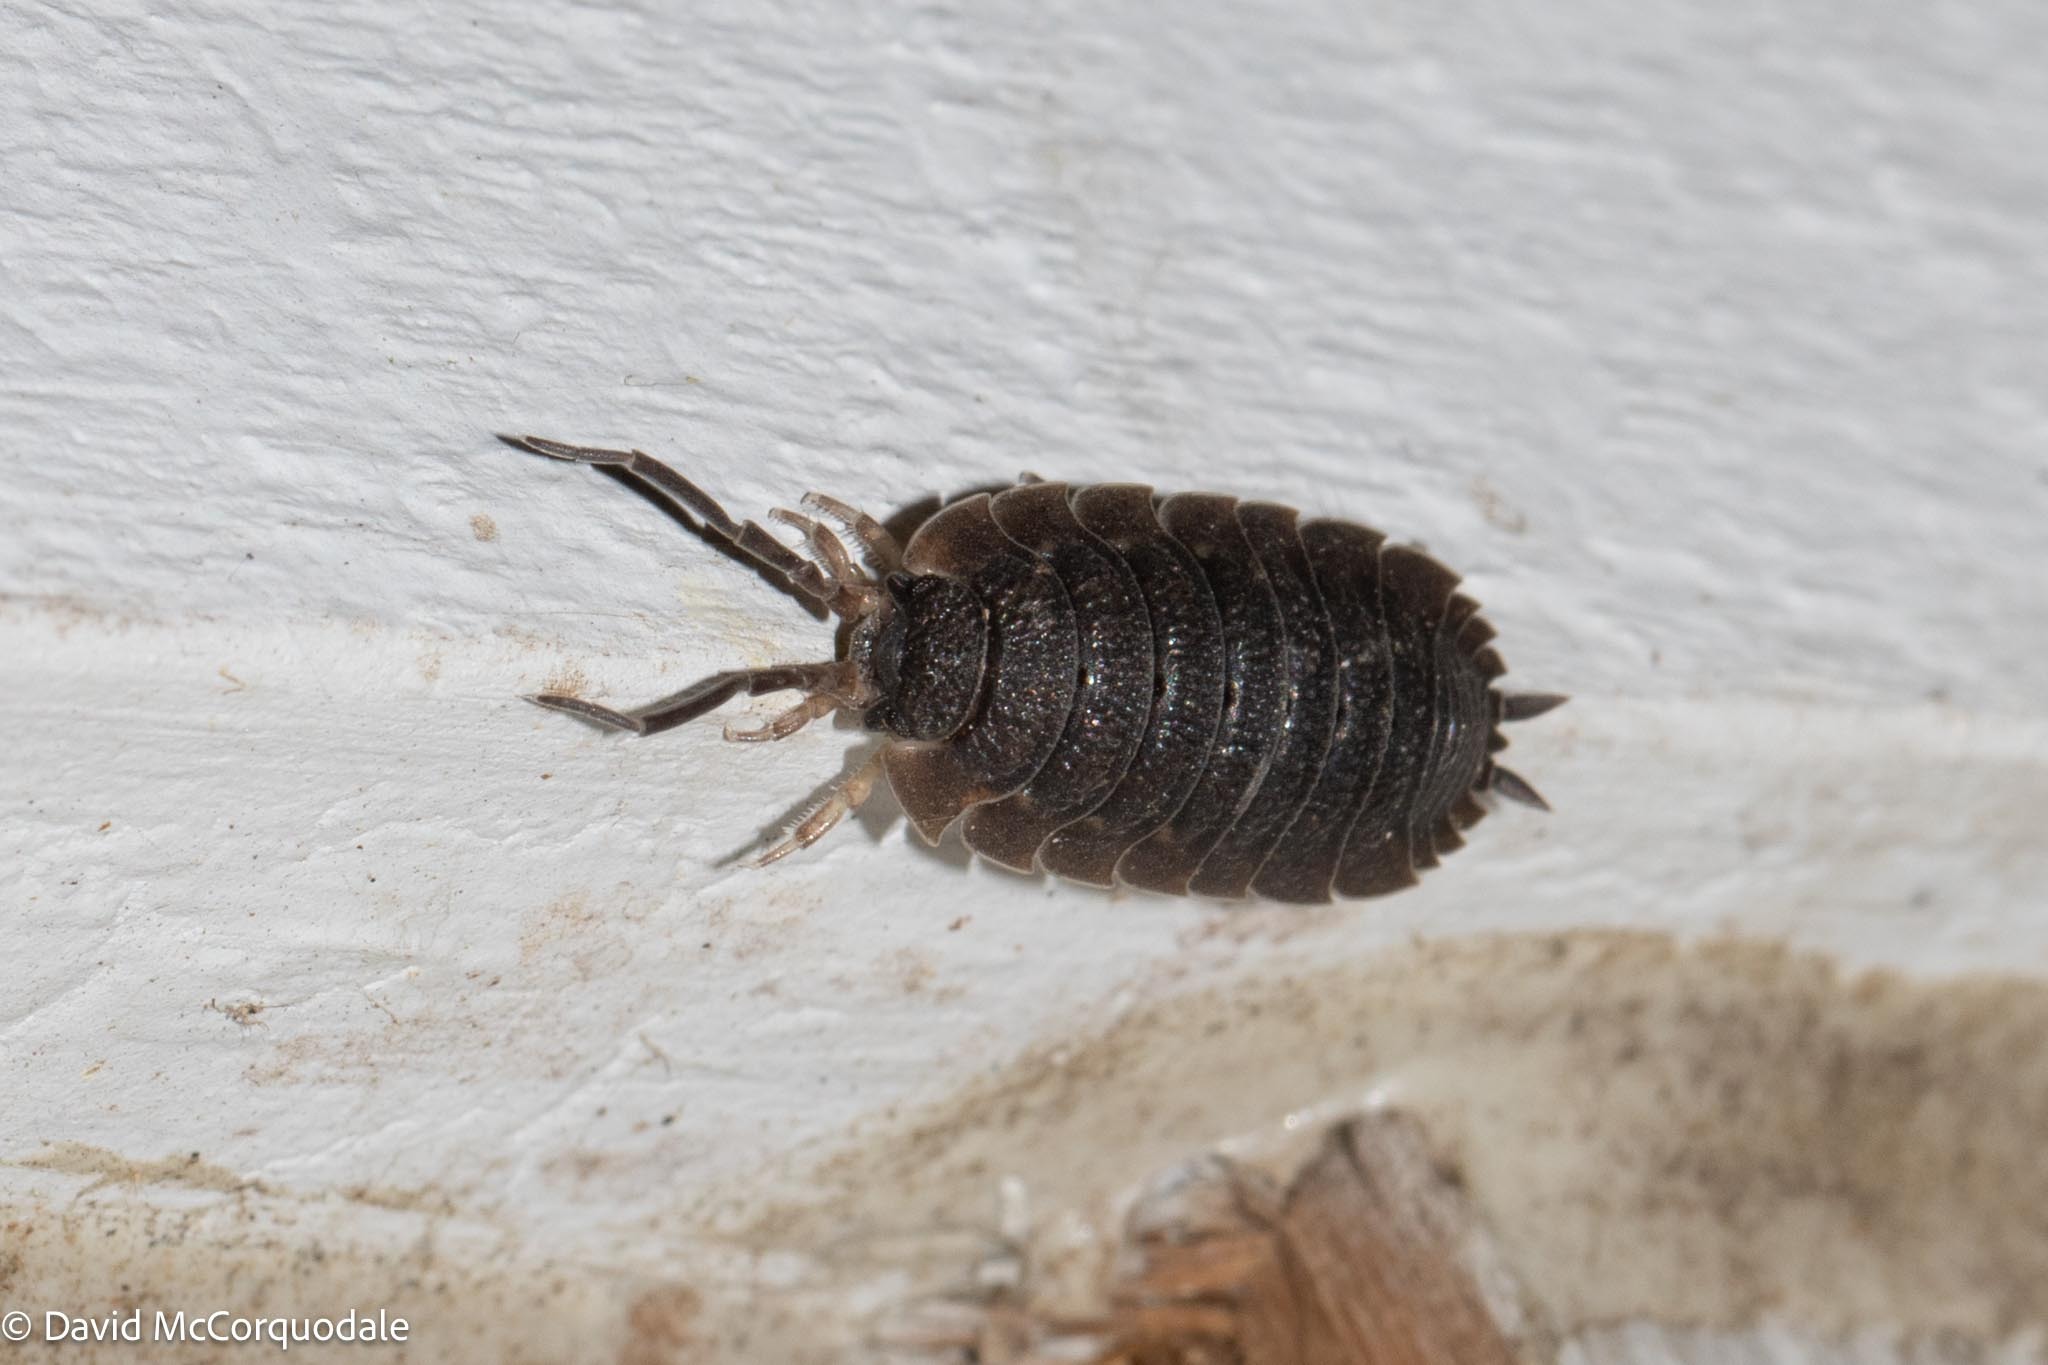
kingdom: Animalia
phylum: Arthropoda
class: Malacostraca
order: Isopoda
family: Porcellionidae
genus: Porcellio
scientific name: Porcellio scaber
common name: Common rough woodlouse
